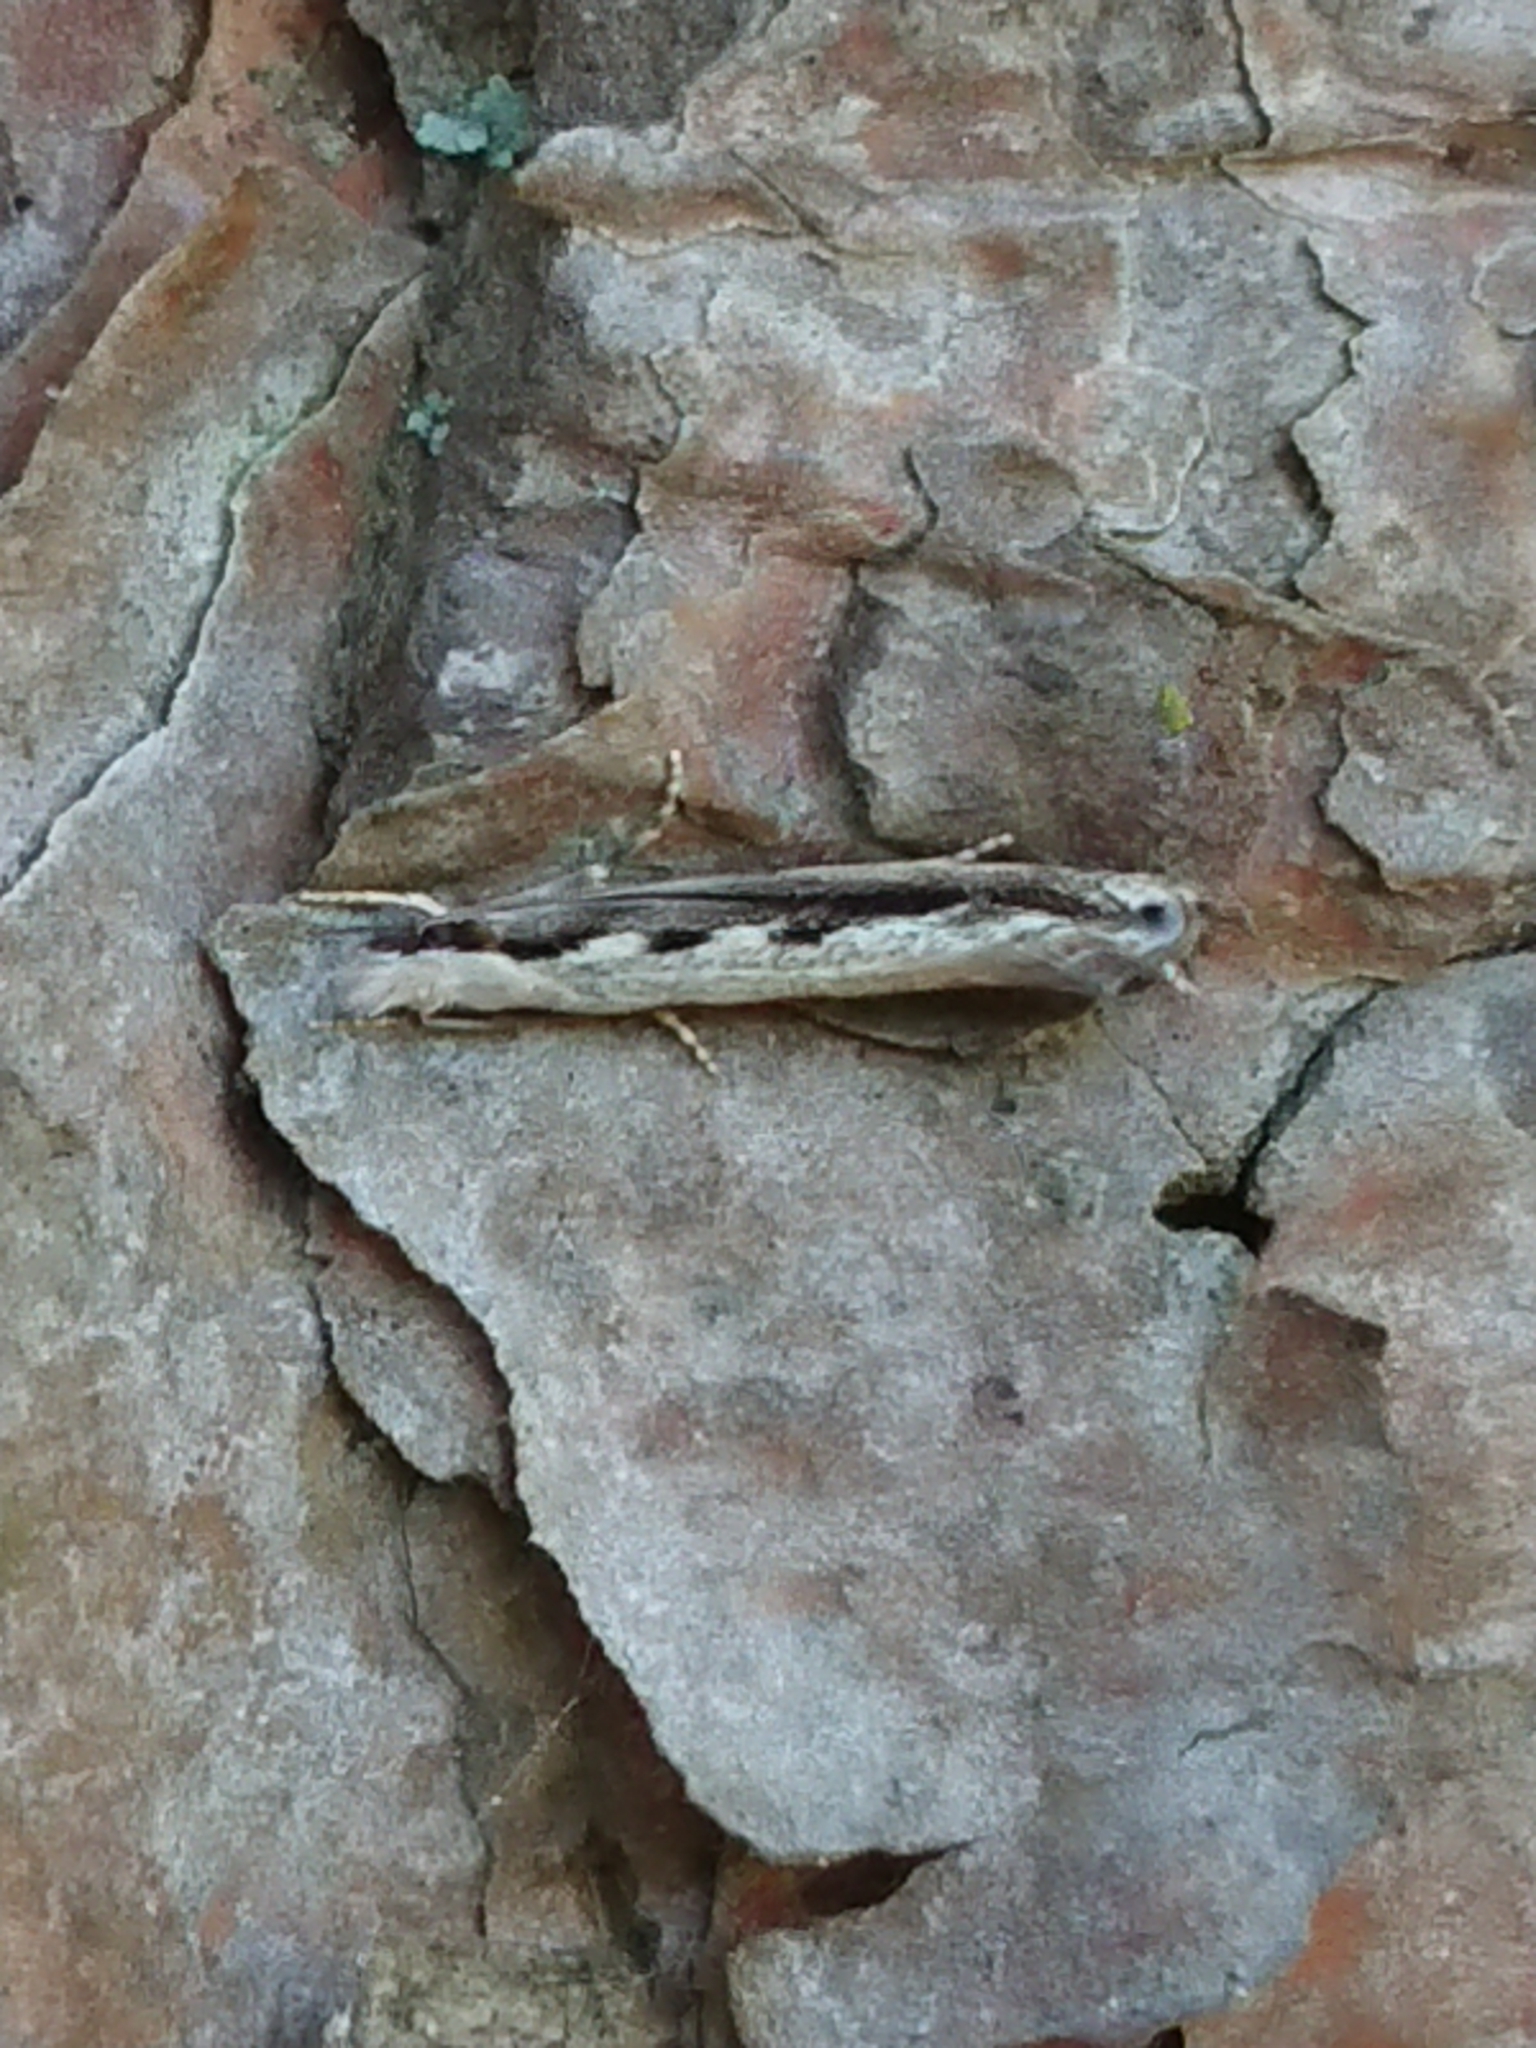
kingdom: Animalia
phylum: Arthropoda
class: Insecta
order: Lepidoptera
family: Tineidae
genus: Erechthias
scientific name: Erechthias fulguritella
